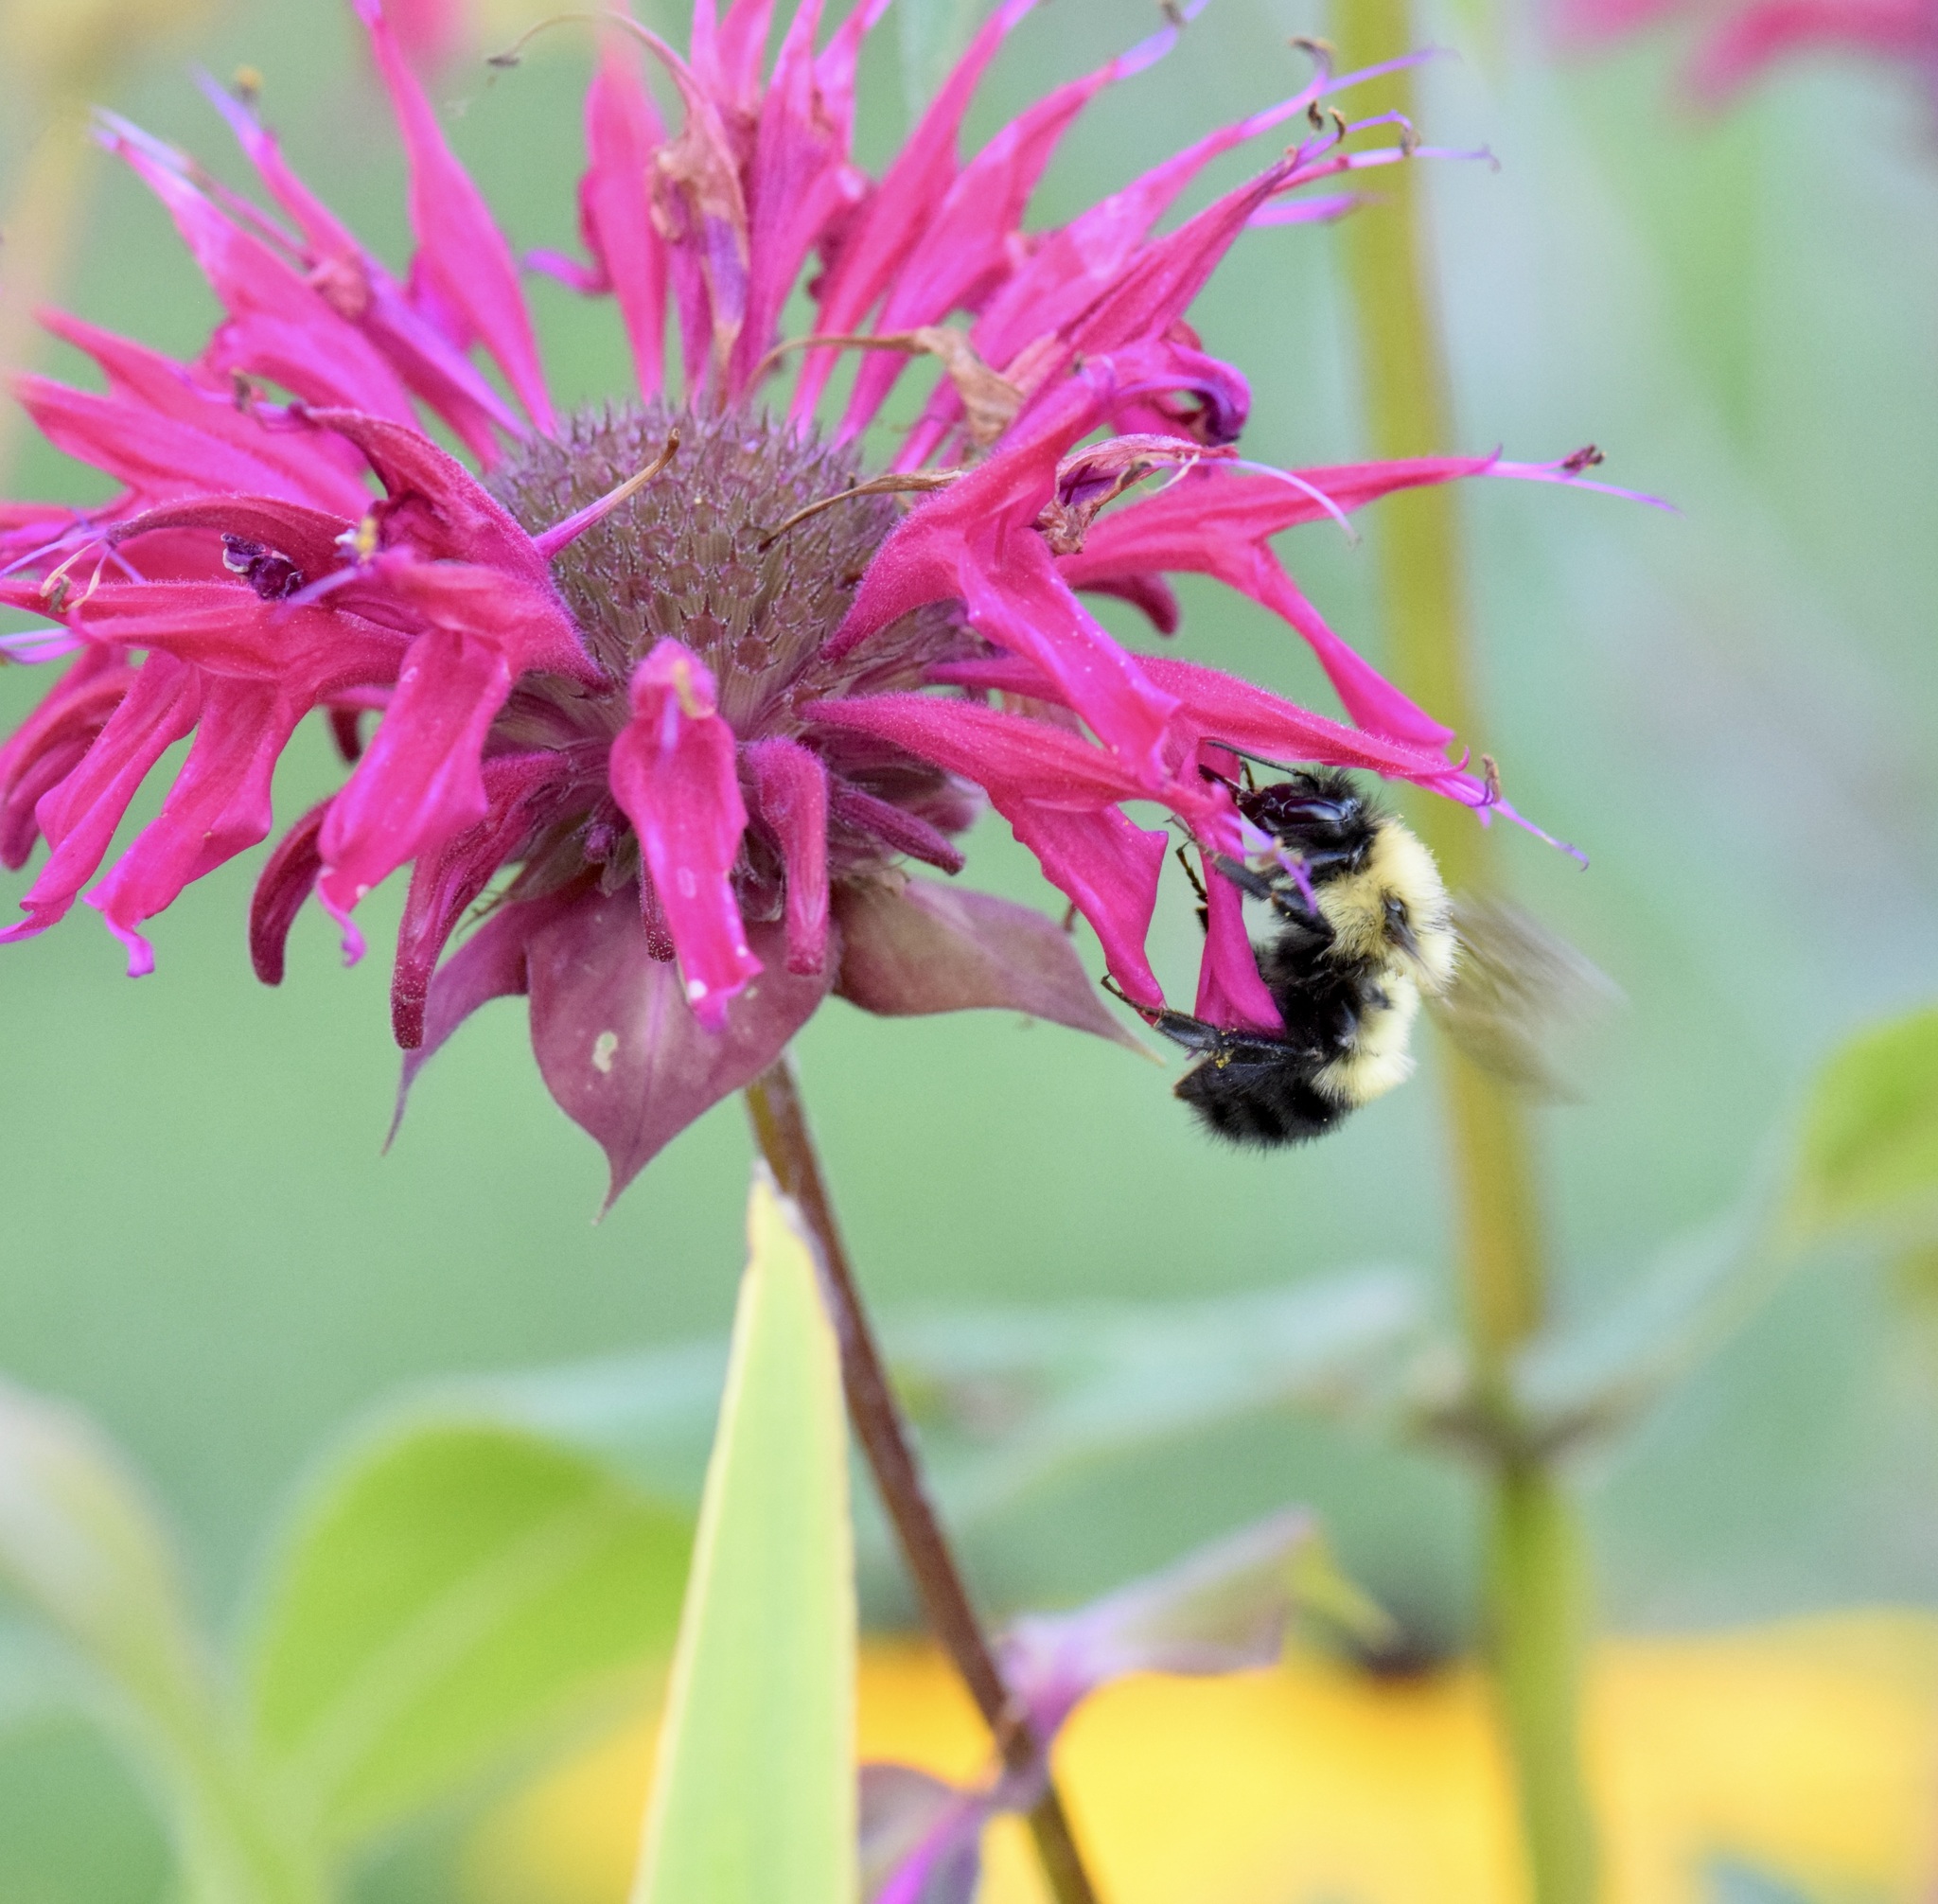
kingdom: Animalia
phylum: Arthropoda
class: Insecta
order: Hymenoptera
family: Apidae
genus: Bombus
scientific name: Bombus vagans
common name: Half-black bumble bee
